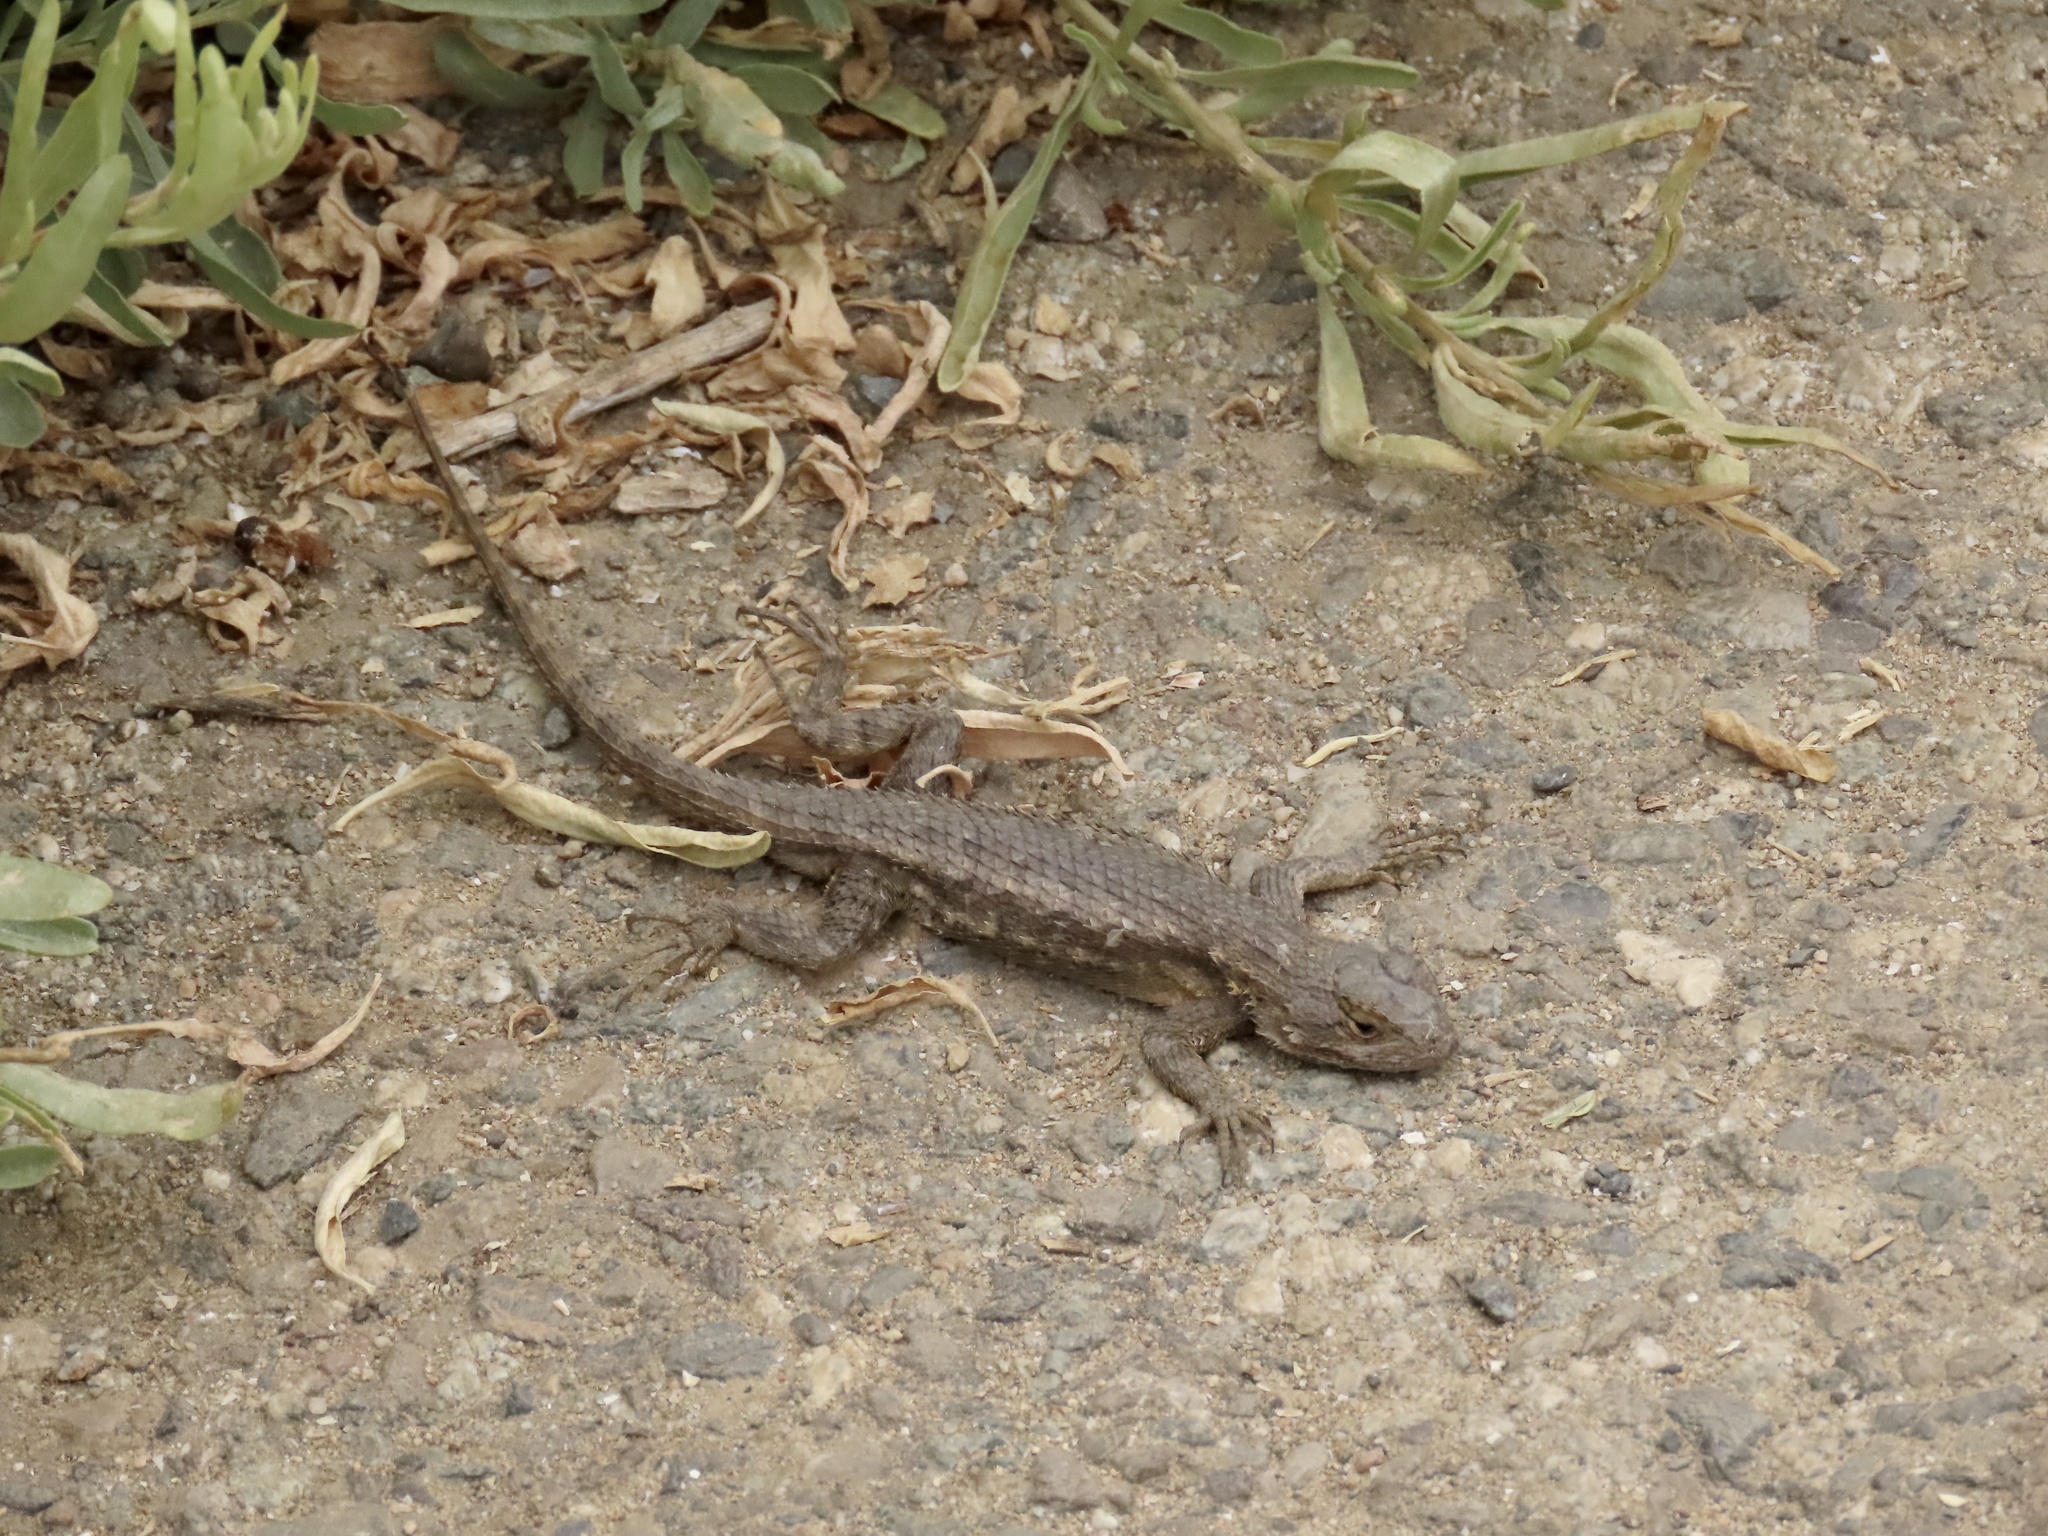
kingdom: Animalia
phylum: Chordata
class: Squamata
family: Phrynosomatidae
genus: Sceloporus
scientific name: Sceloporus occidentalis
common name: Western fence lizard
